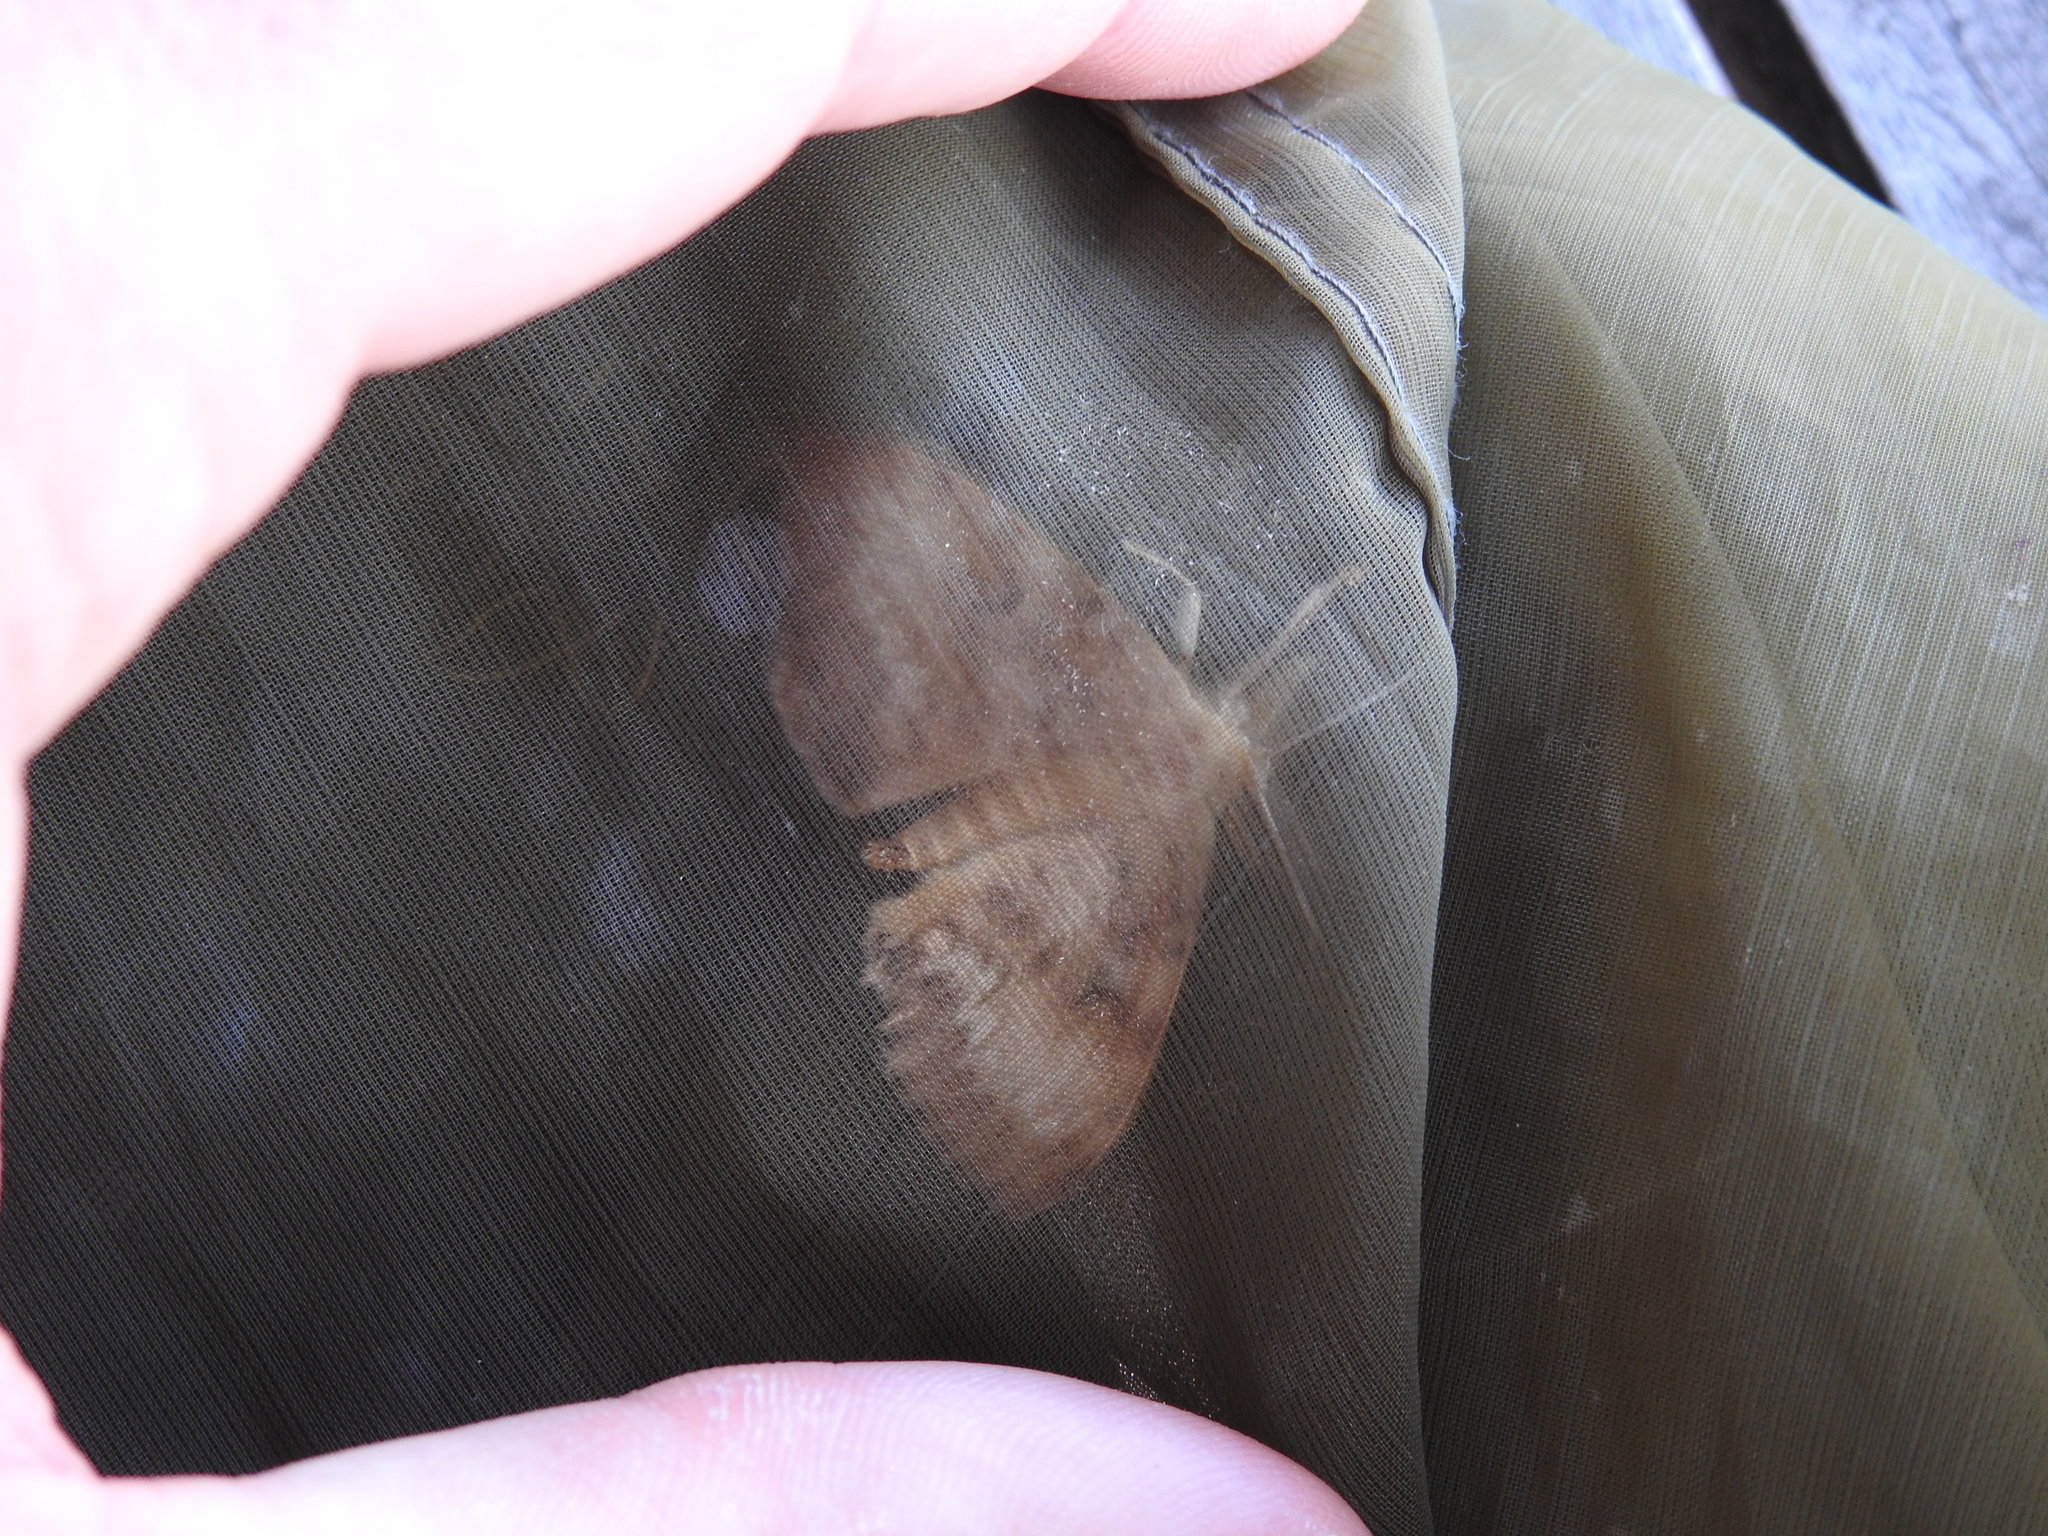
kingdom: Animalia
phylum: Arthropoda
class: Insecta
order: Lepidoptera
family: Erebidae
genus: Lymantria
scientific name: Lymantria dispar
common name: Gypsy moth
